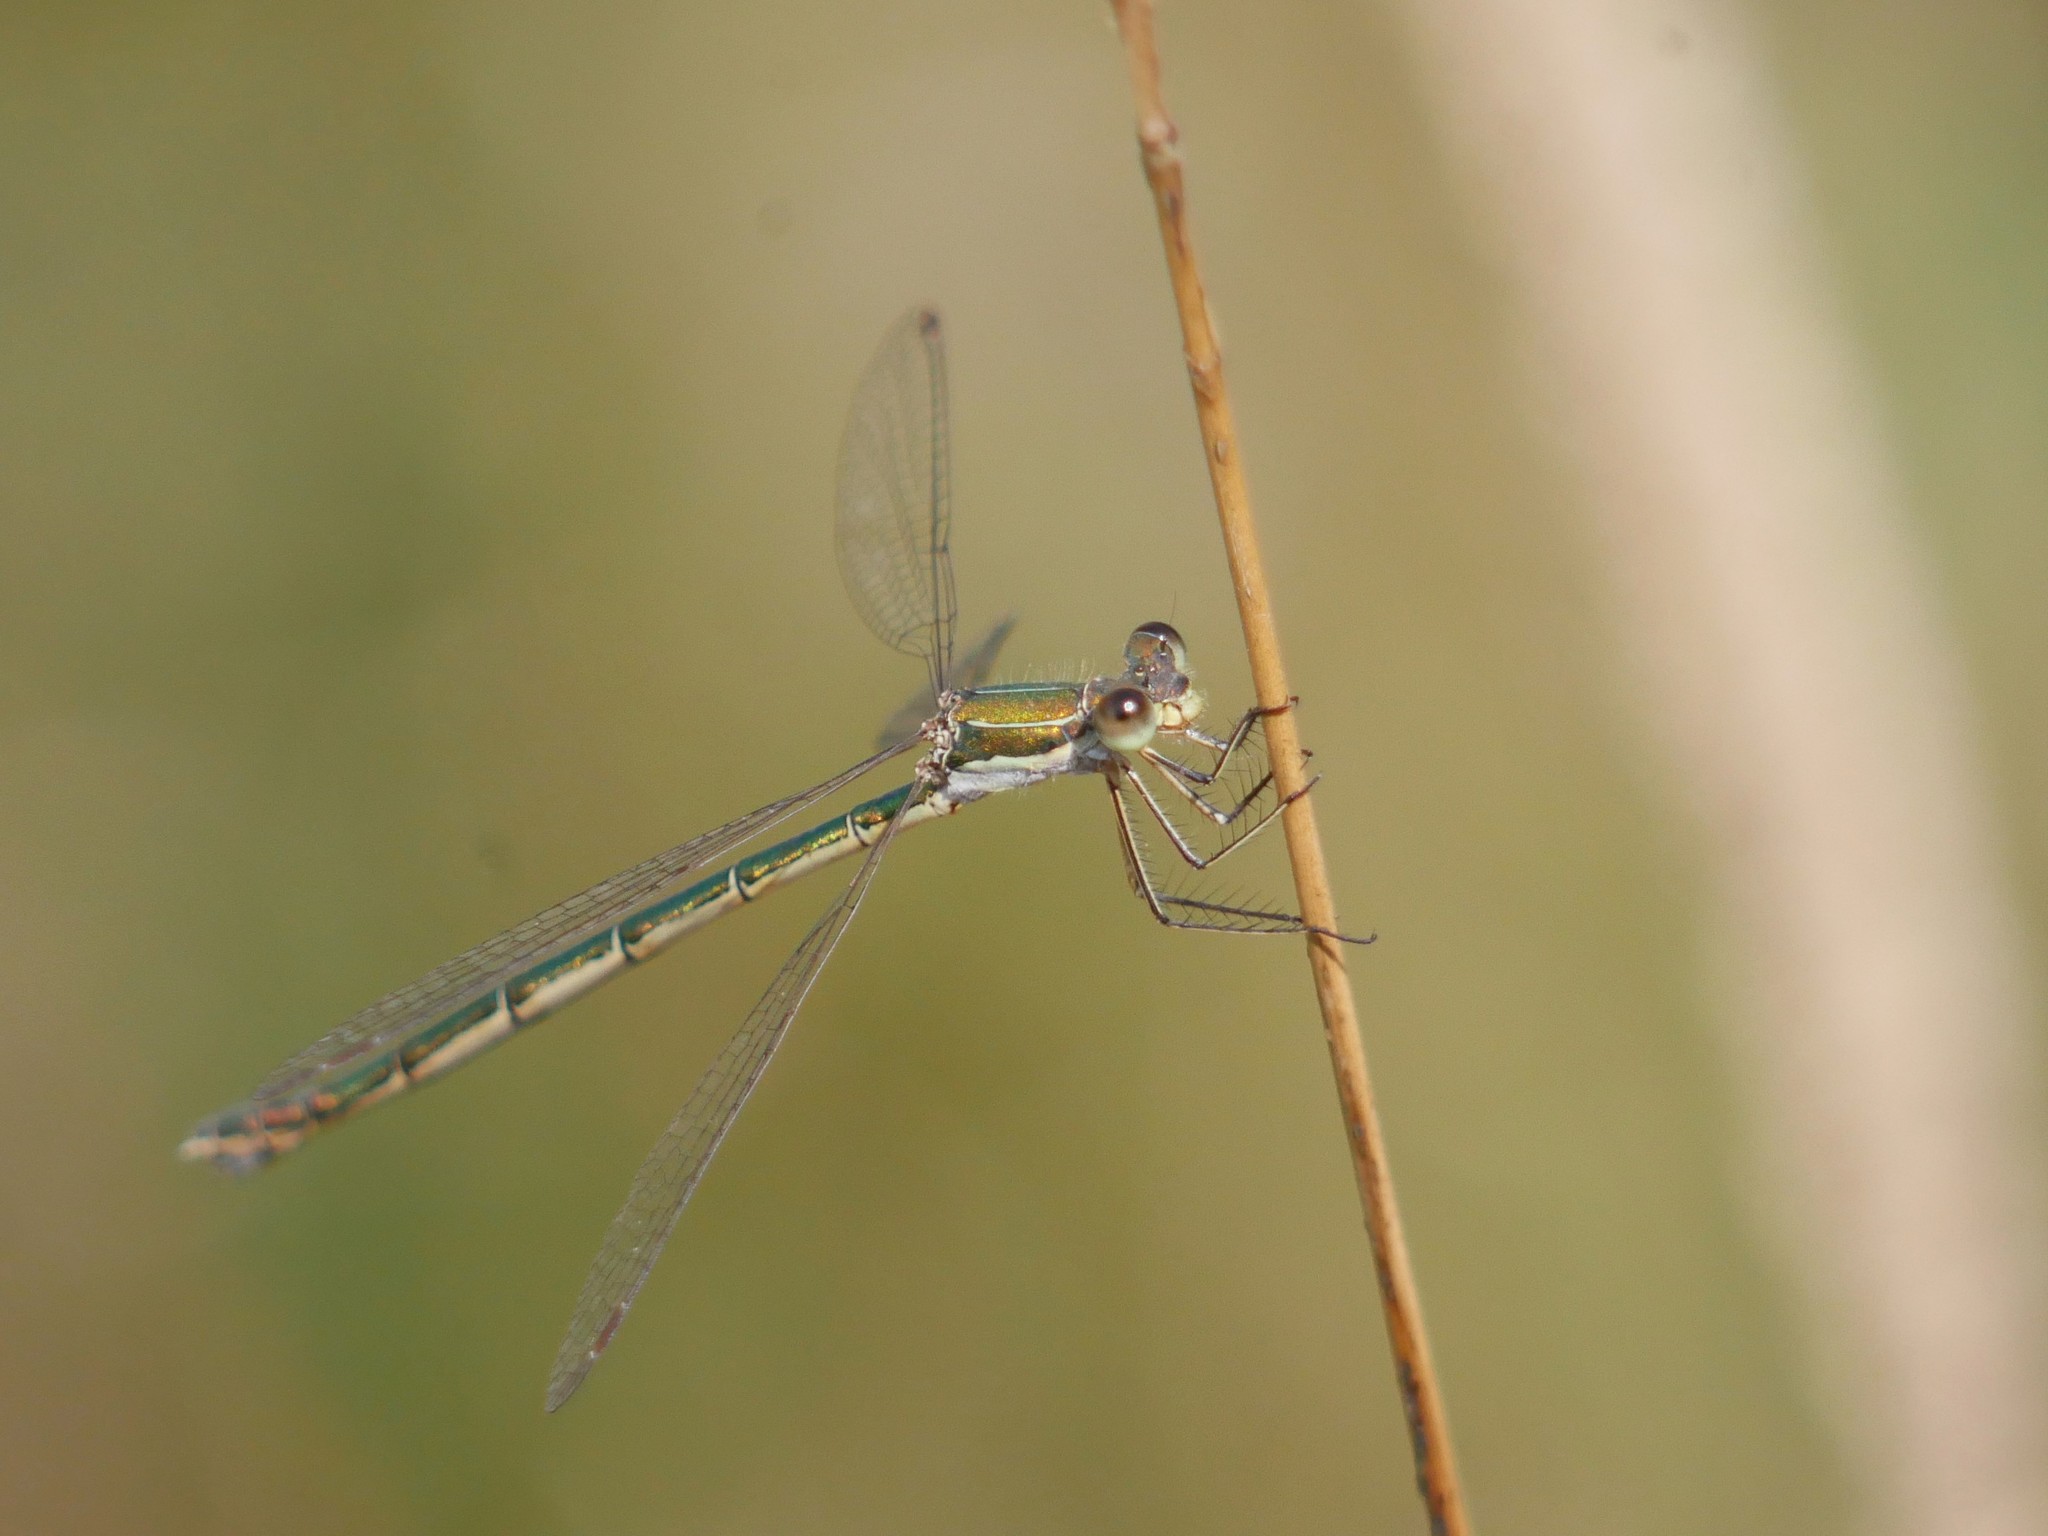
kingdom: Animalia
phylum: Arthropoda
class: Insecta
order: Odonata
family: Lestidae
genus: Lestes
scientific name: Lestes sponsa
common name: Common spreadwing
